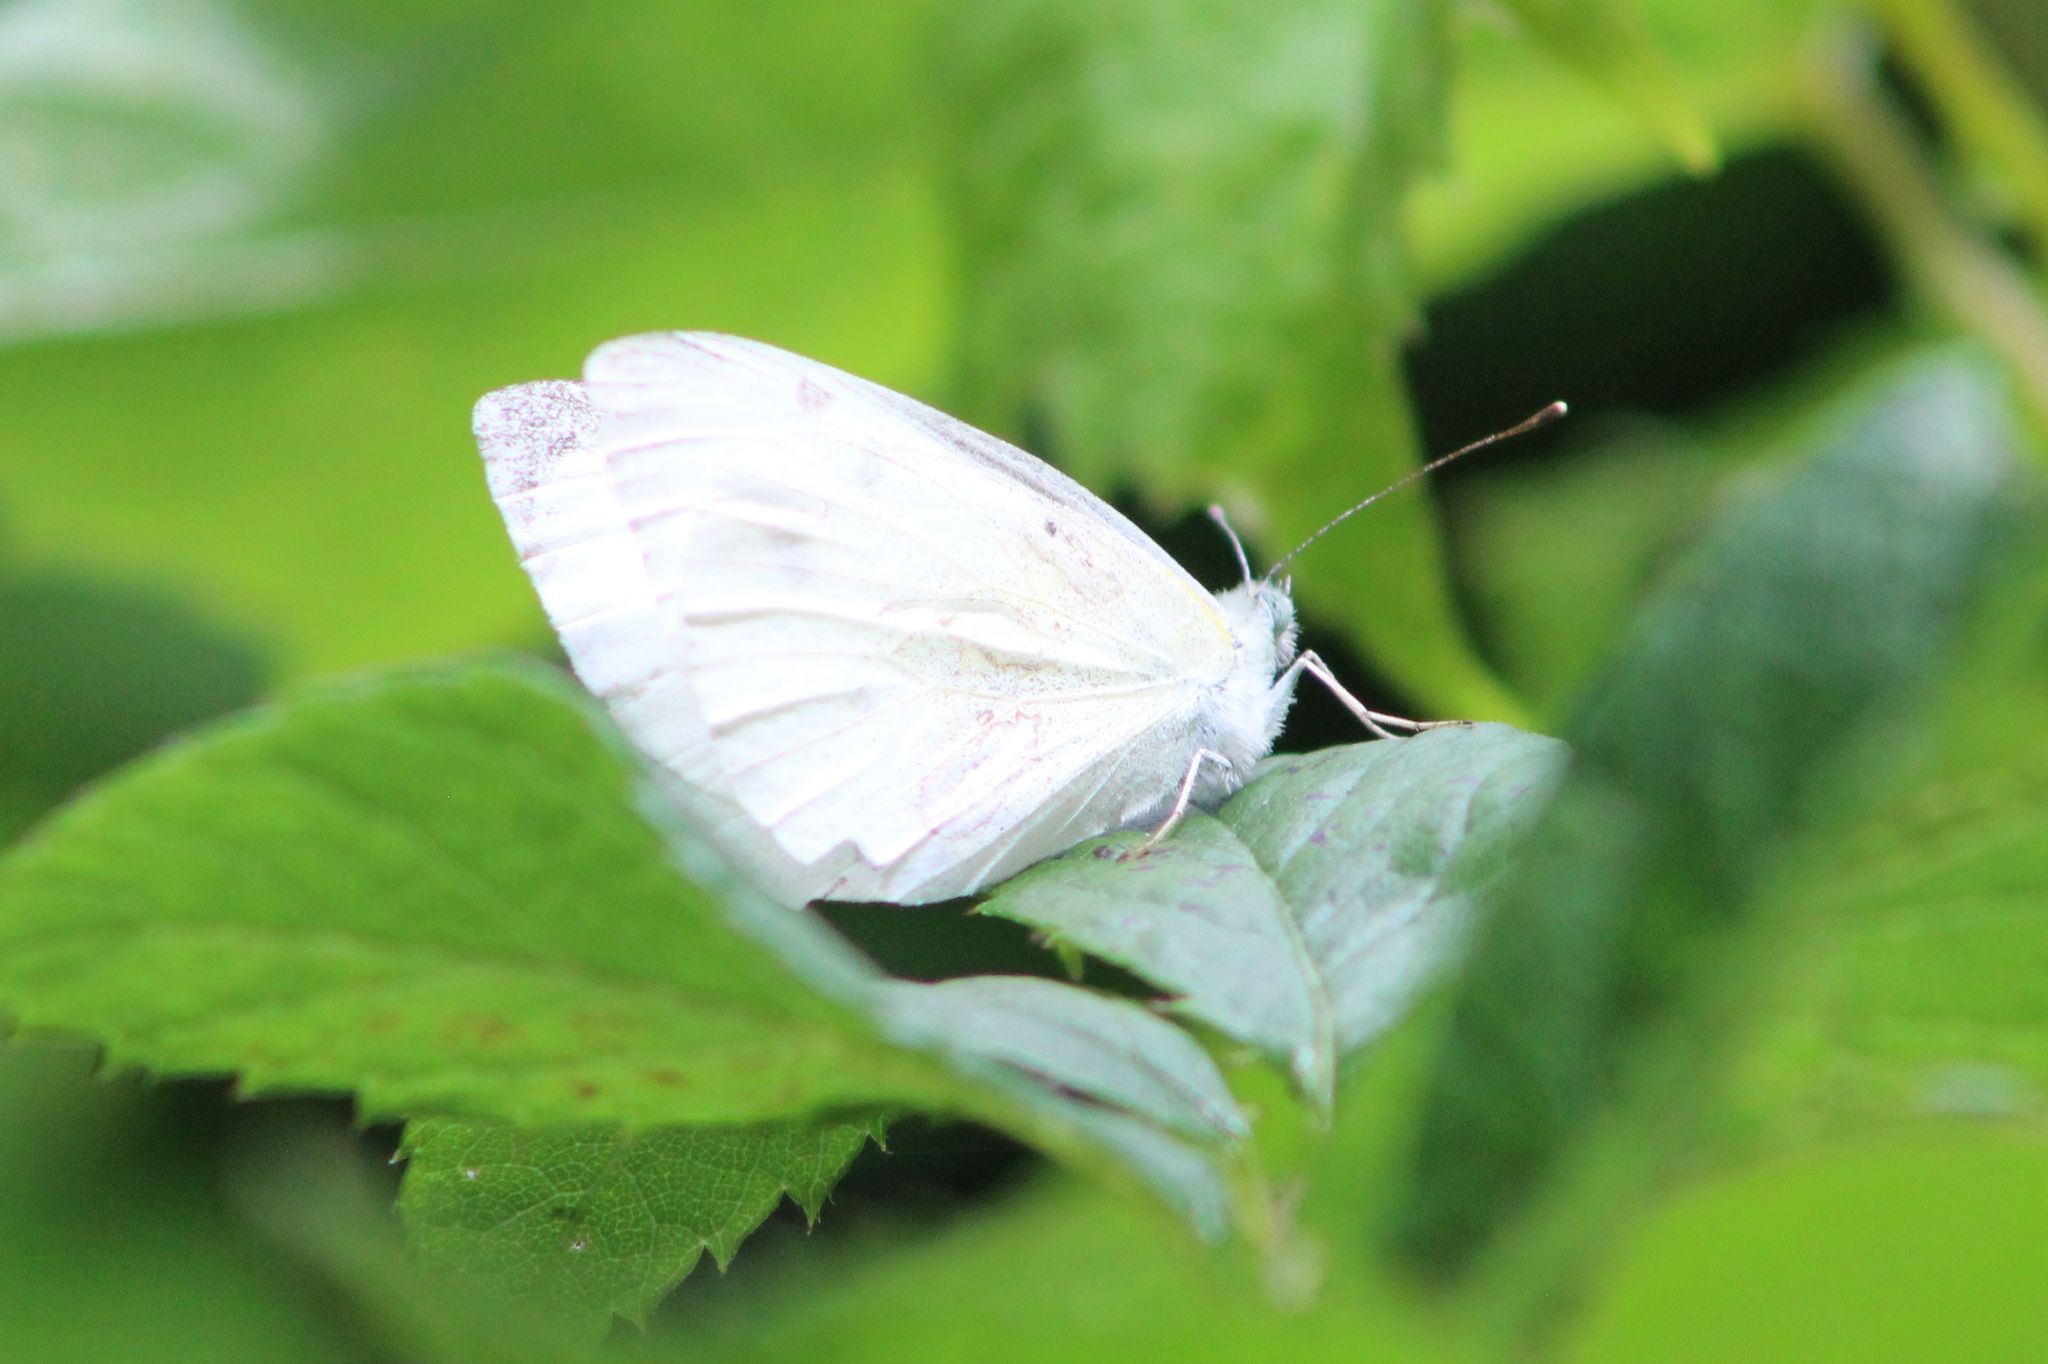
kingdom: Animalia
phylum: Arthropoda
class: Insecta
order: Lepidoptera
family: Pieridae
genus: Pieris
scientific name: Pieris rapae
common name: Small white
